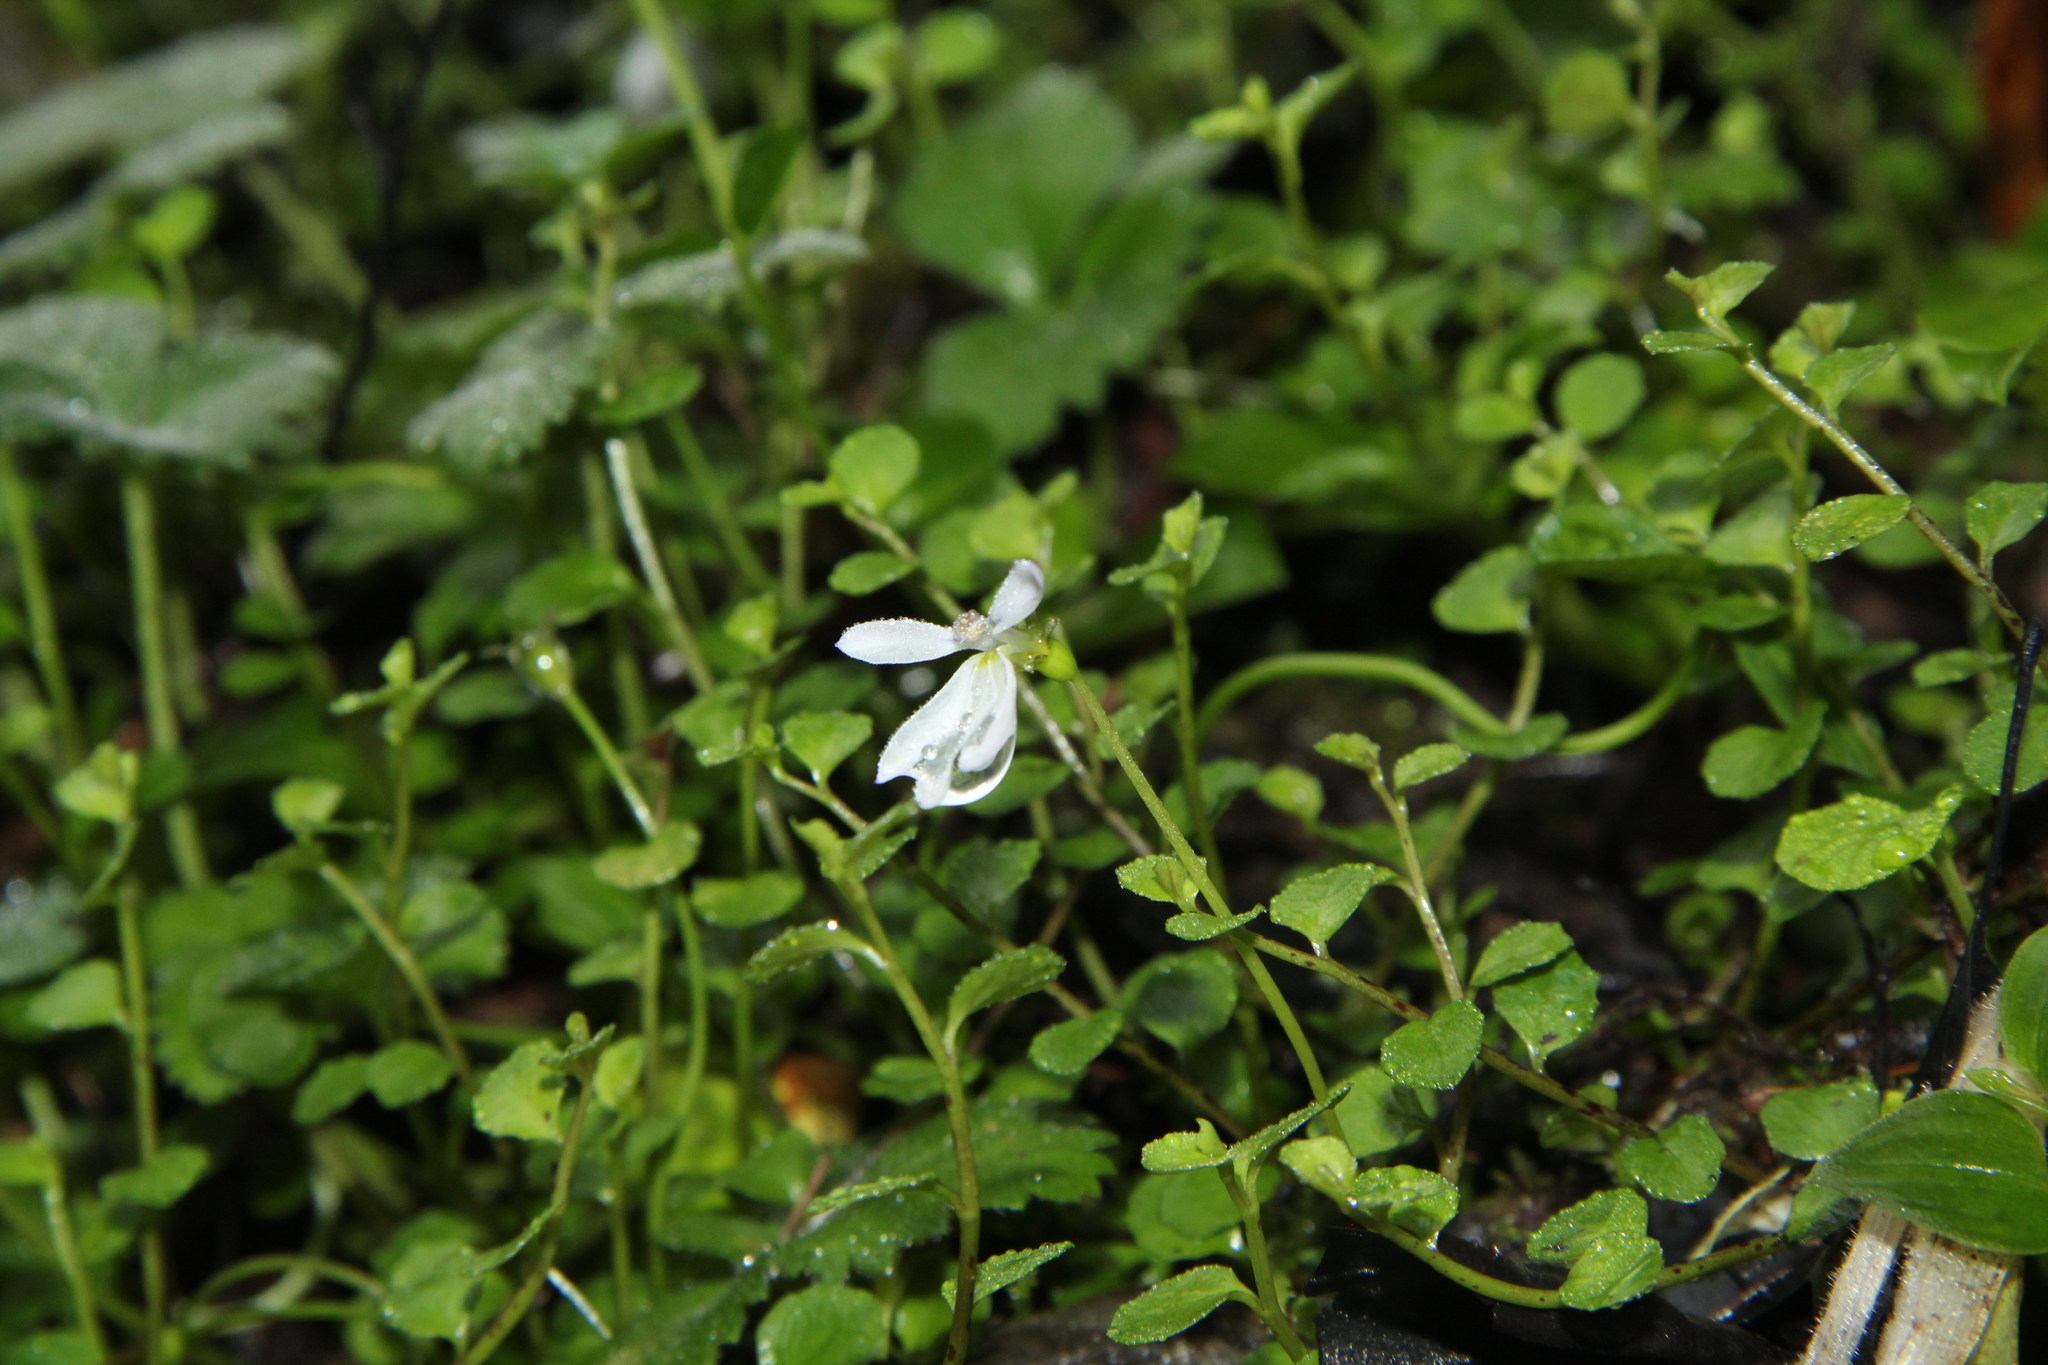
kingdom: Plantae
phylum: Tracheophyta
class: Magnoliopsida
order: Asterales
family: Campanulaceae
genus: Lobelia
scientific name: Lobelia angulata
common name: Lawn lobelia
